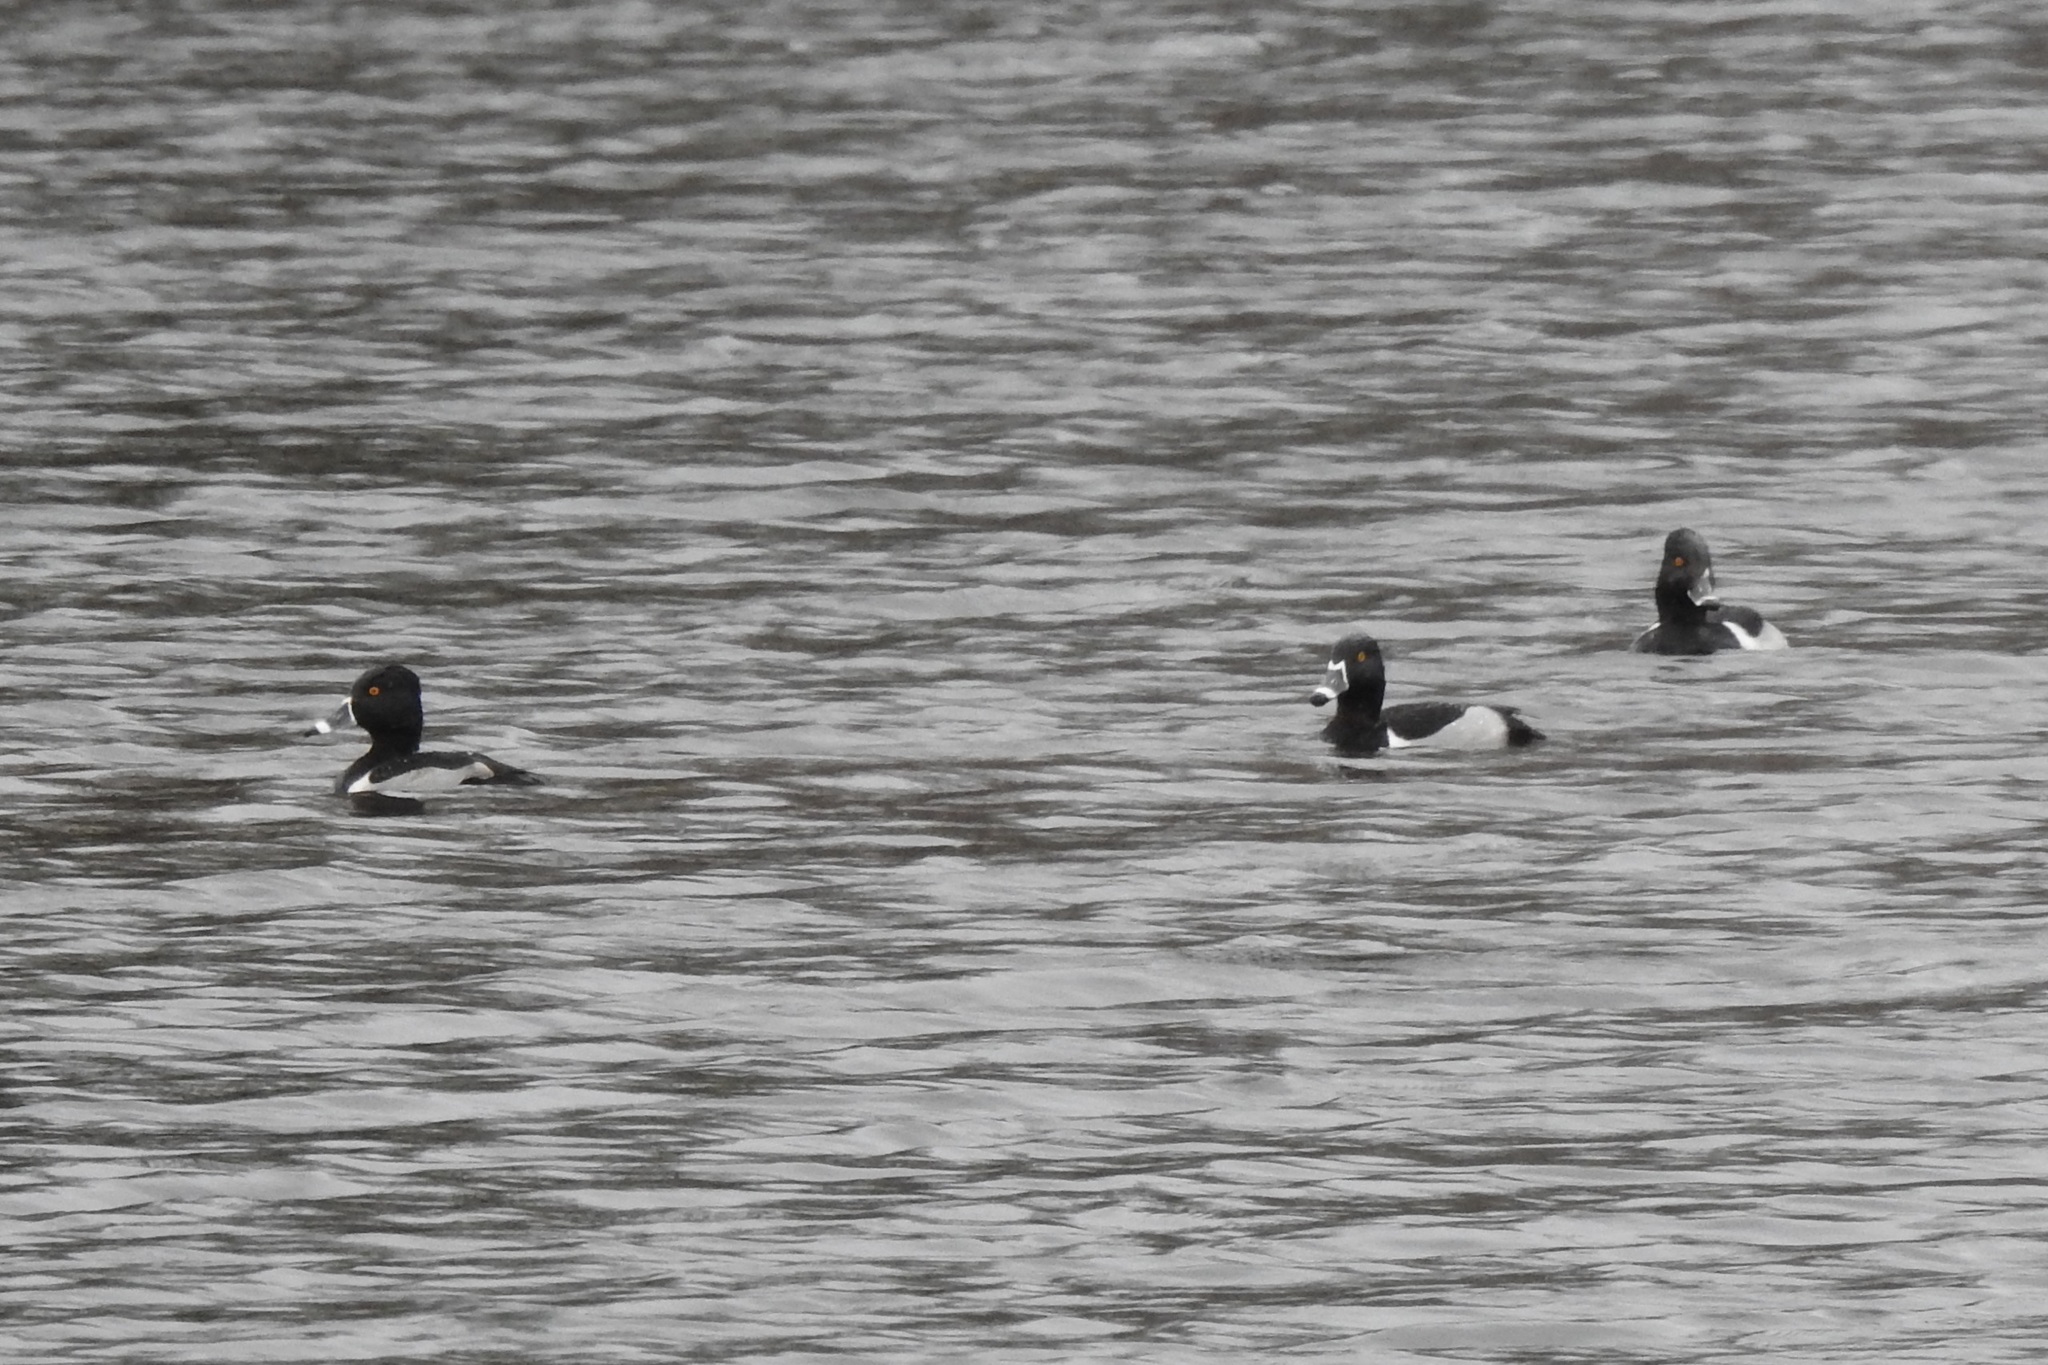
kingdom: Animalia
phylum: Chordata
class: Aves
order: Anseriformes
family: Anatidae
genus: Aythya
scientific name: Aythya collaris
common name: Ring-necked duck
